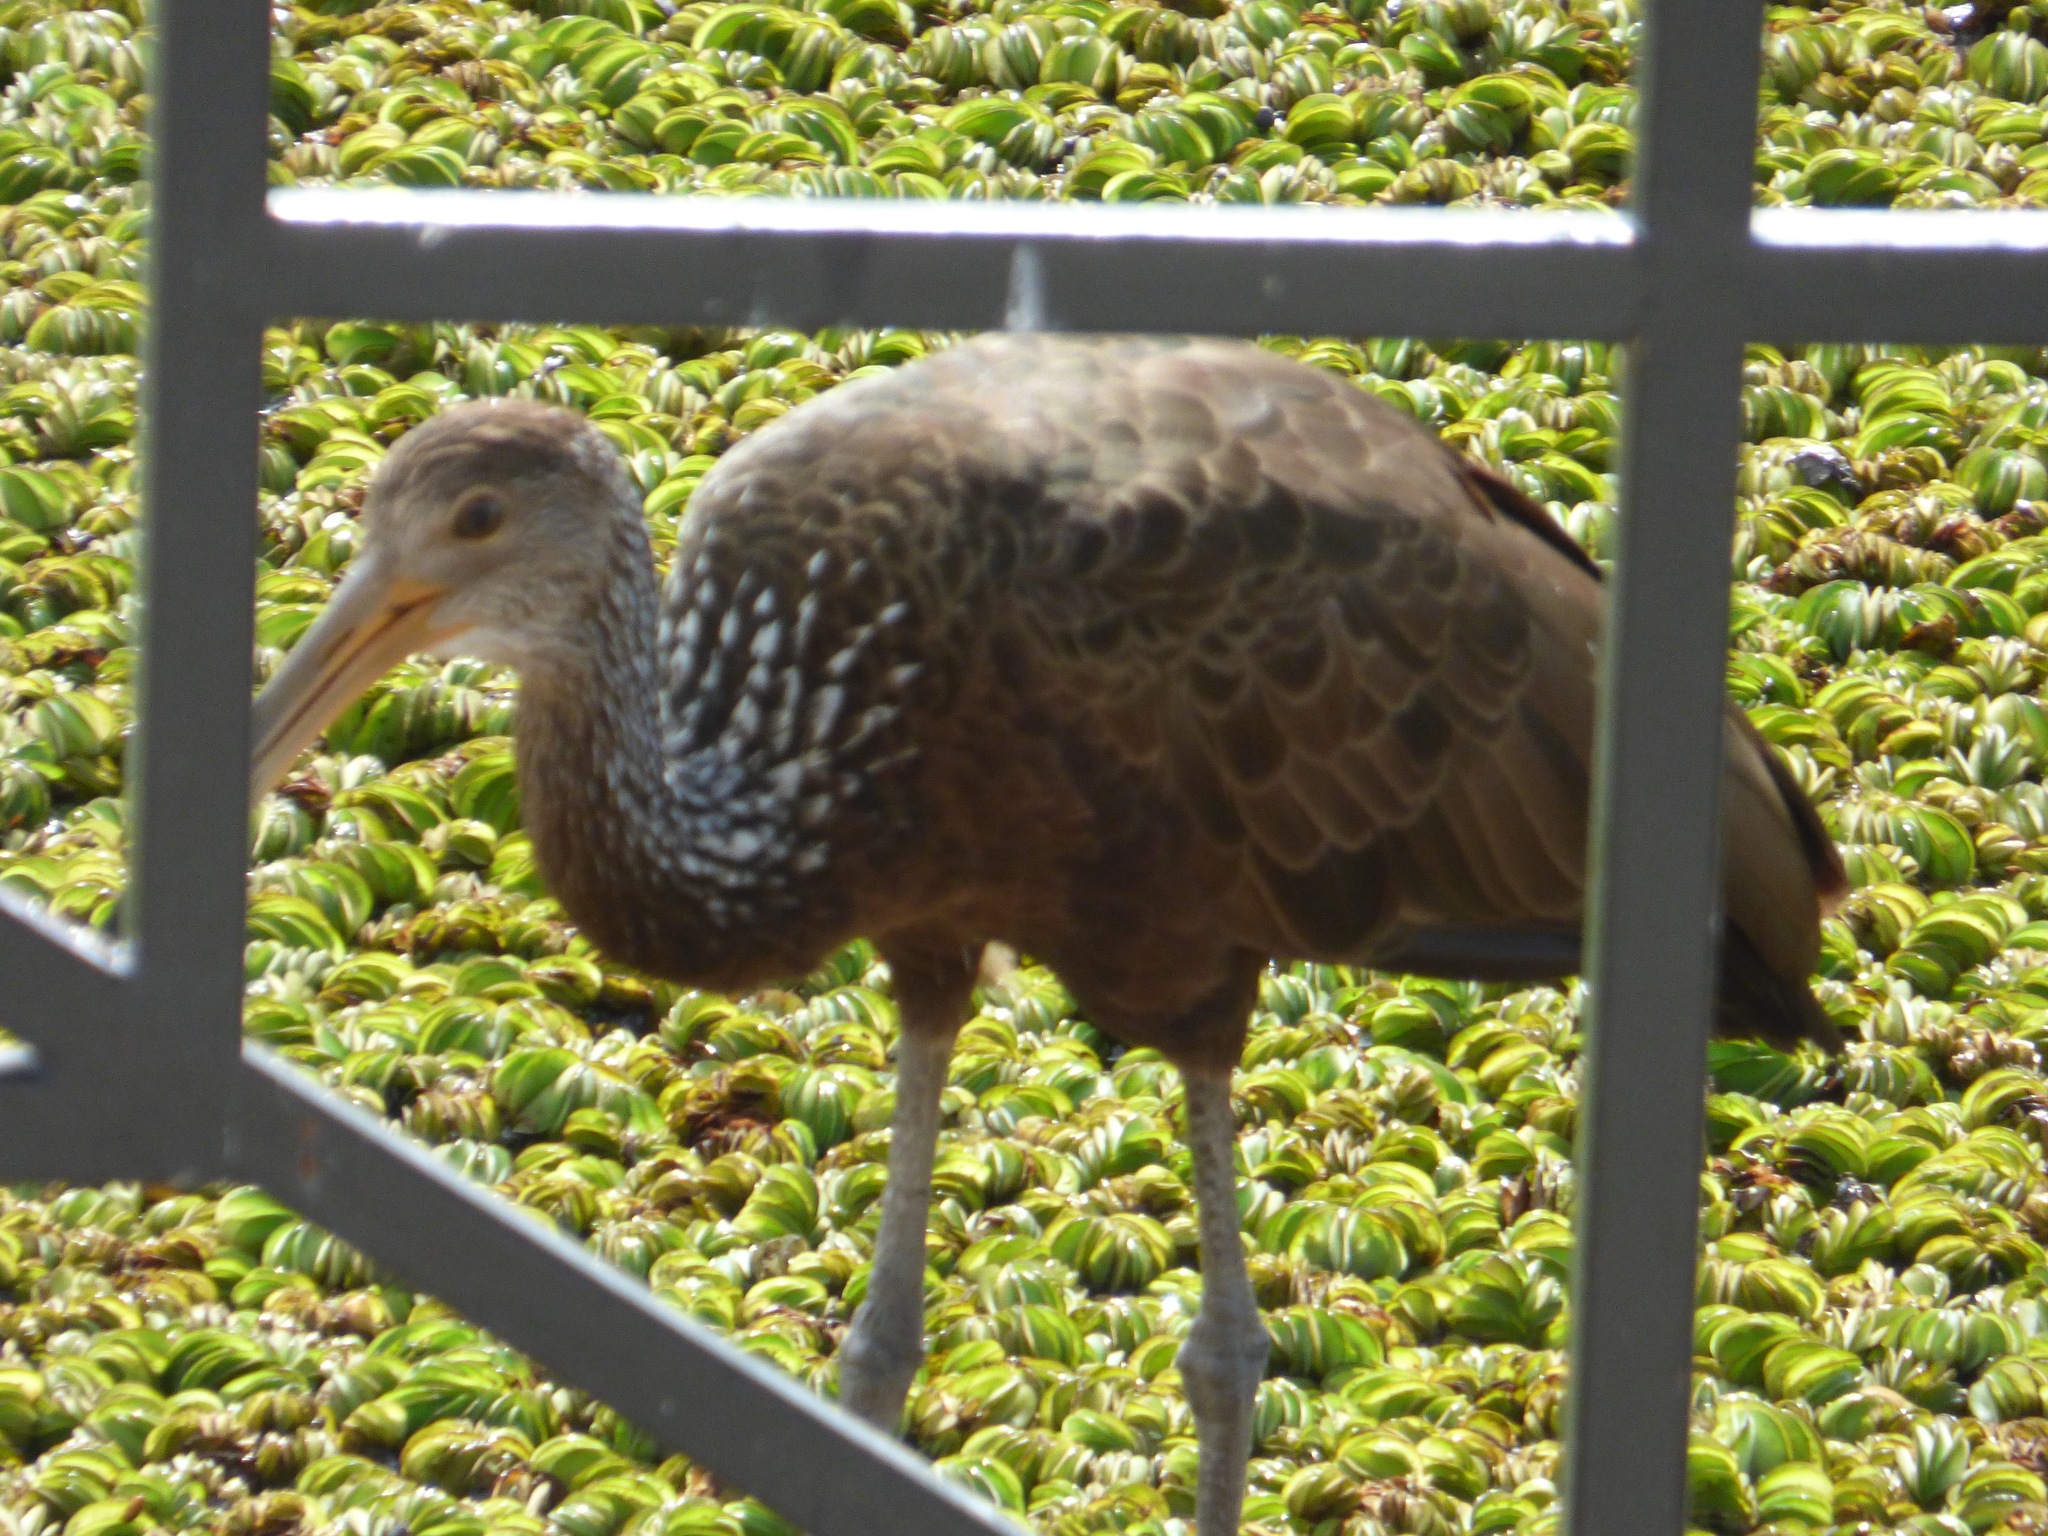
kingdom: Animalia
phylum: Chordata
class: Aves
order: Gruiformes
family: Aramidae
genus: Aramus
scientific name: Aramus guarauna
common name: Limpkin
